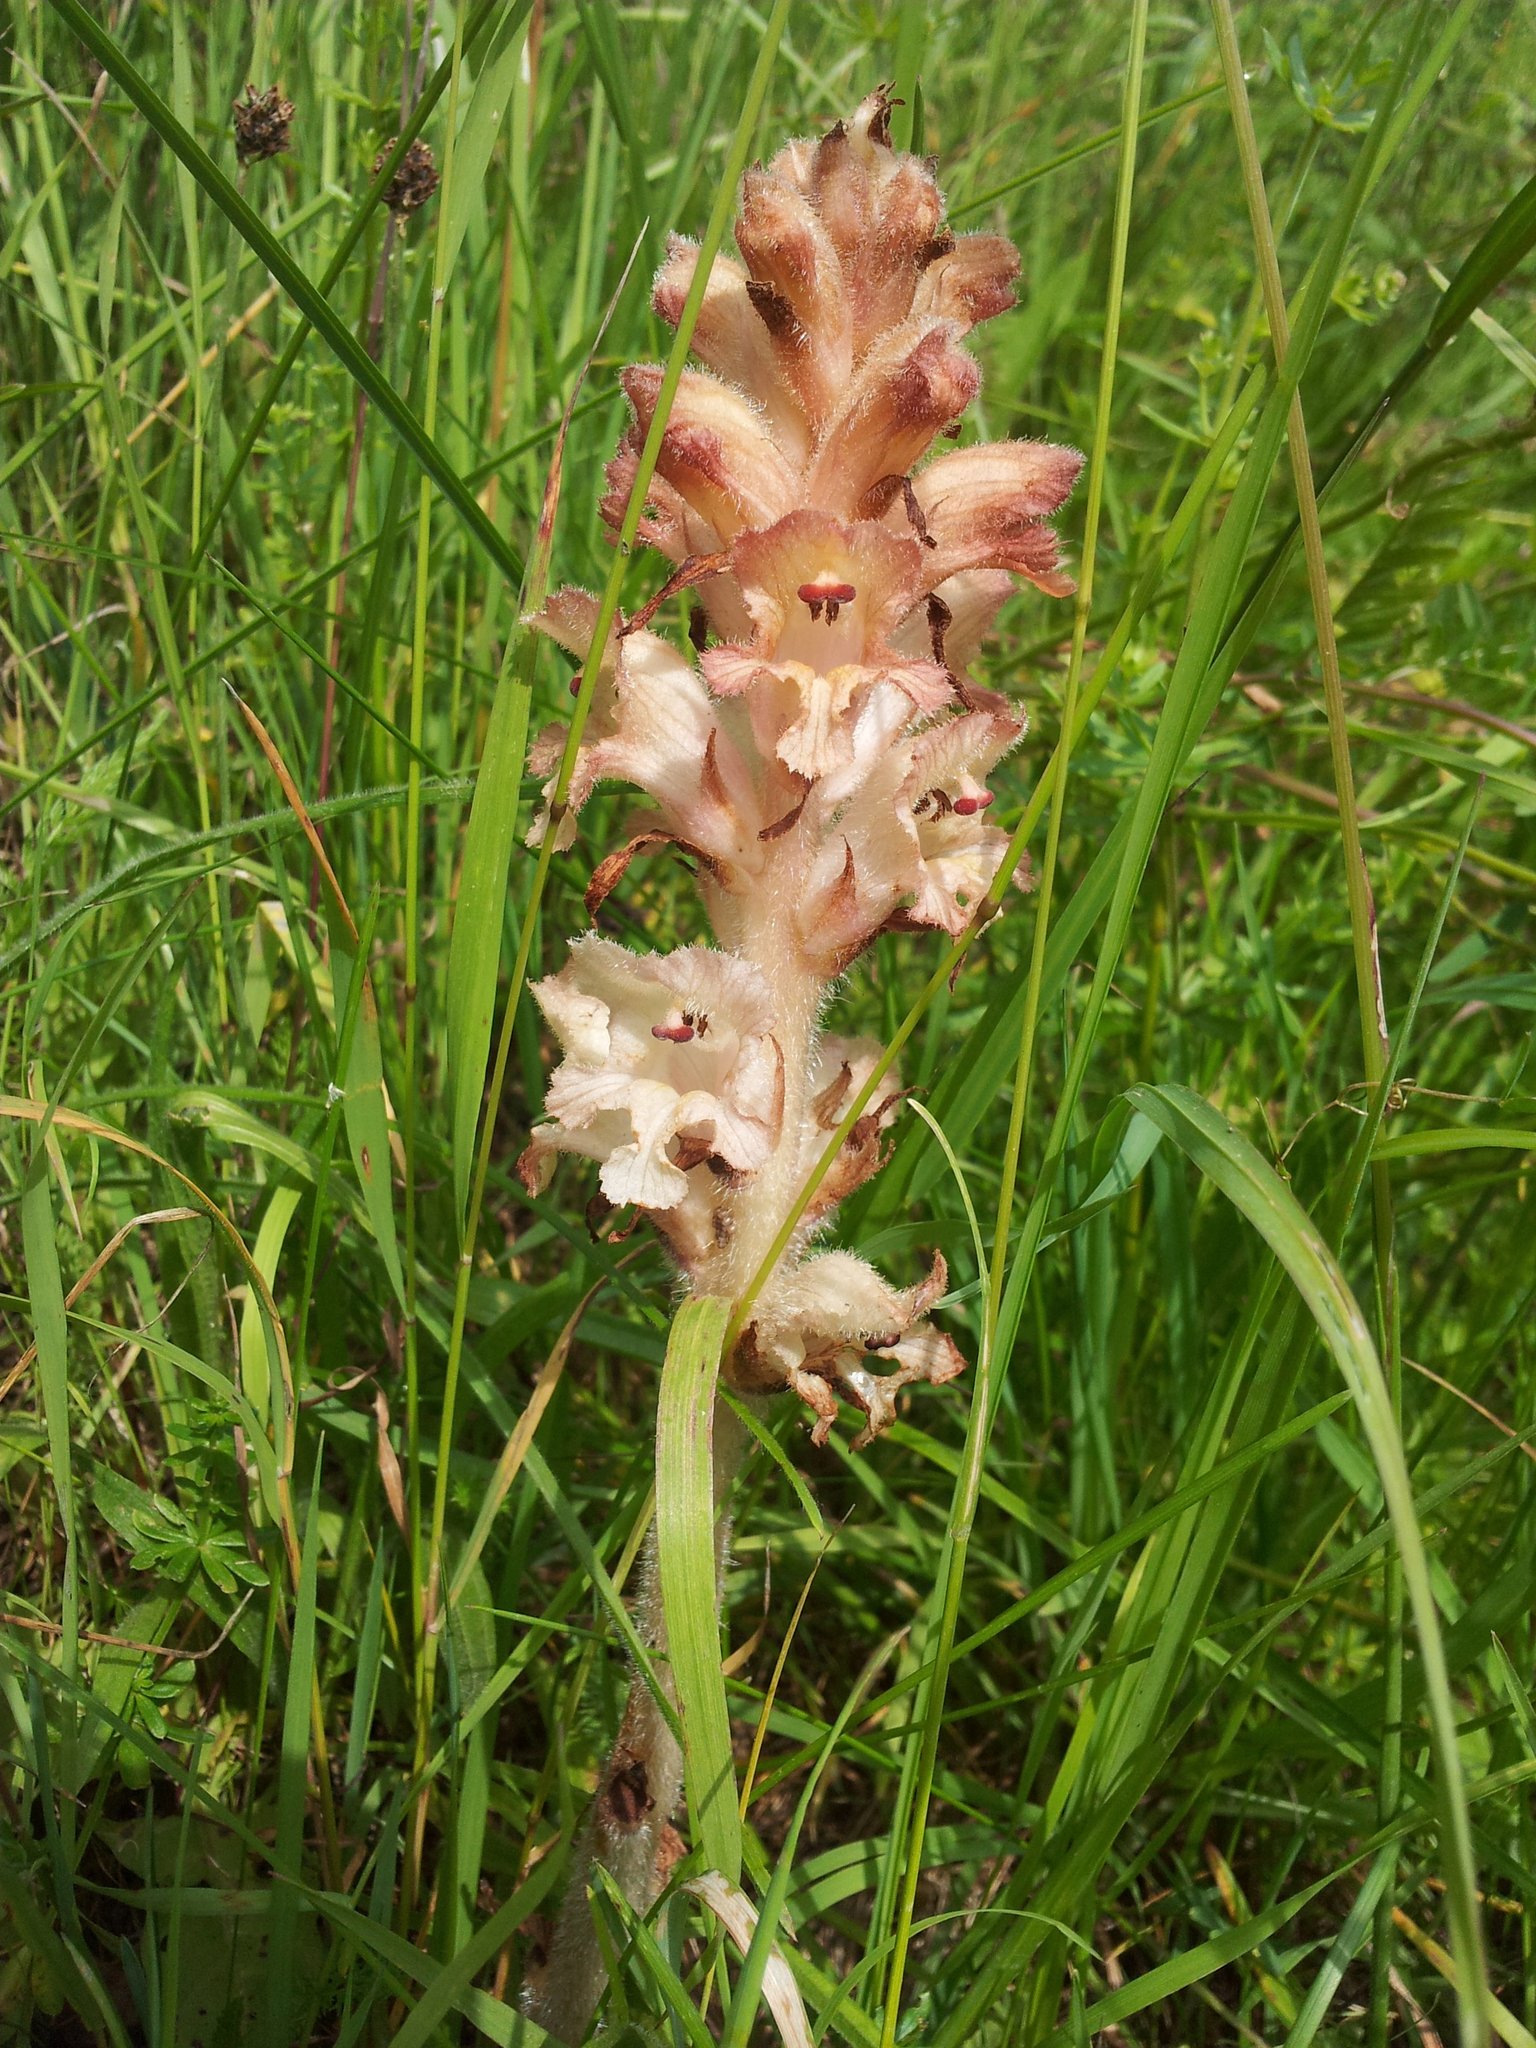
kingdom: Plantae
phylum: Tracheophyta
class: Magnoliopsida
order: Lamiales
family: Orobanchaceae
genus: Orobanche
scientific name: Orobanche caryophyllacea
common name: Bedstraw broomrape
